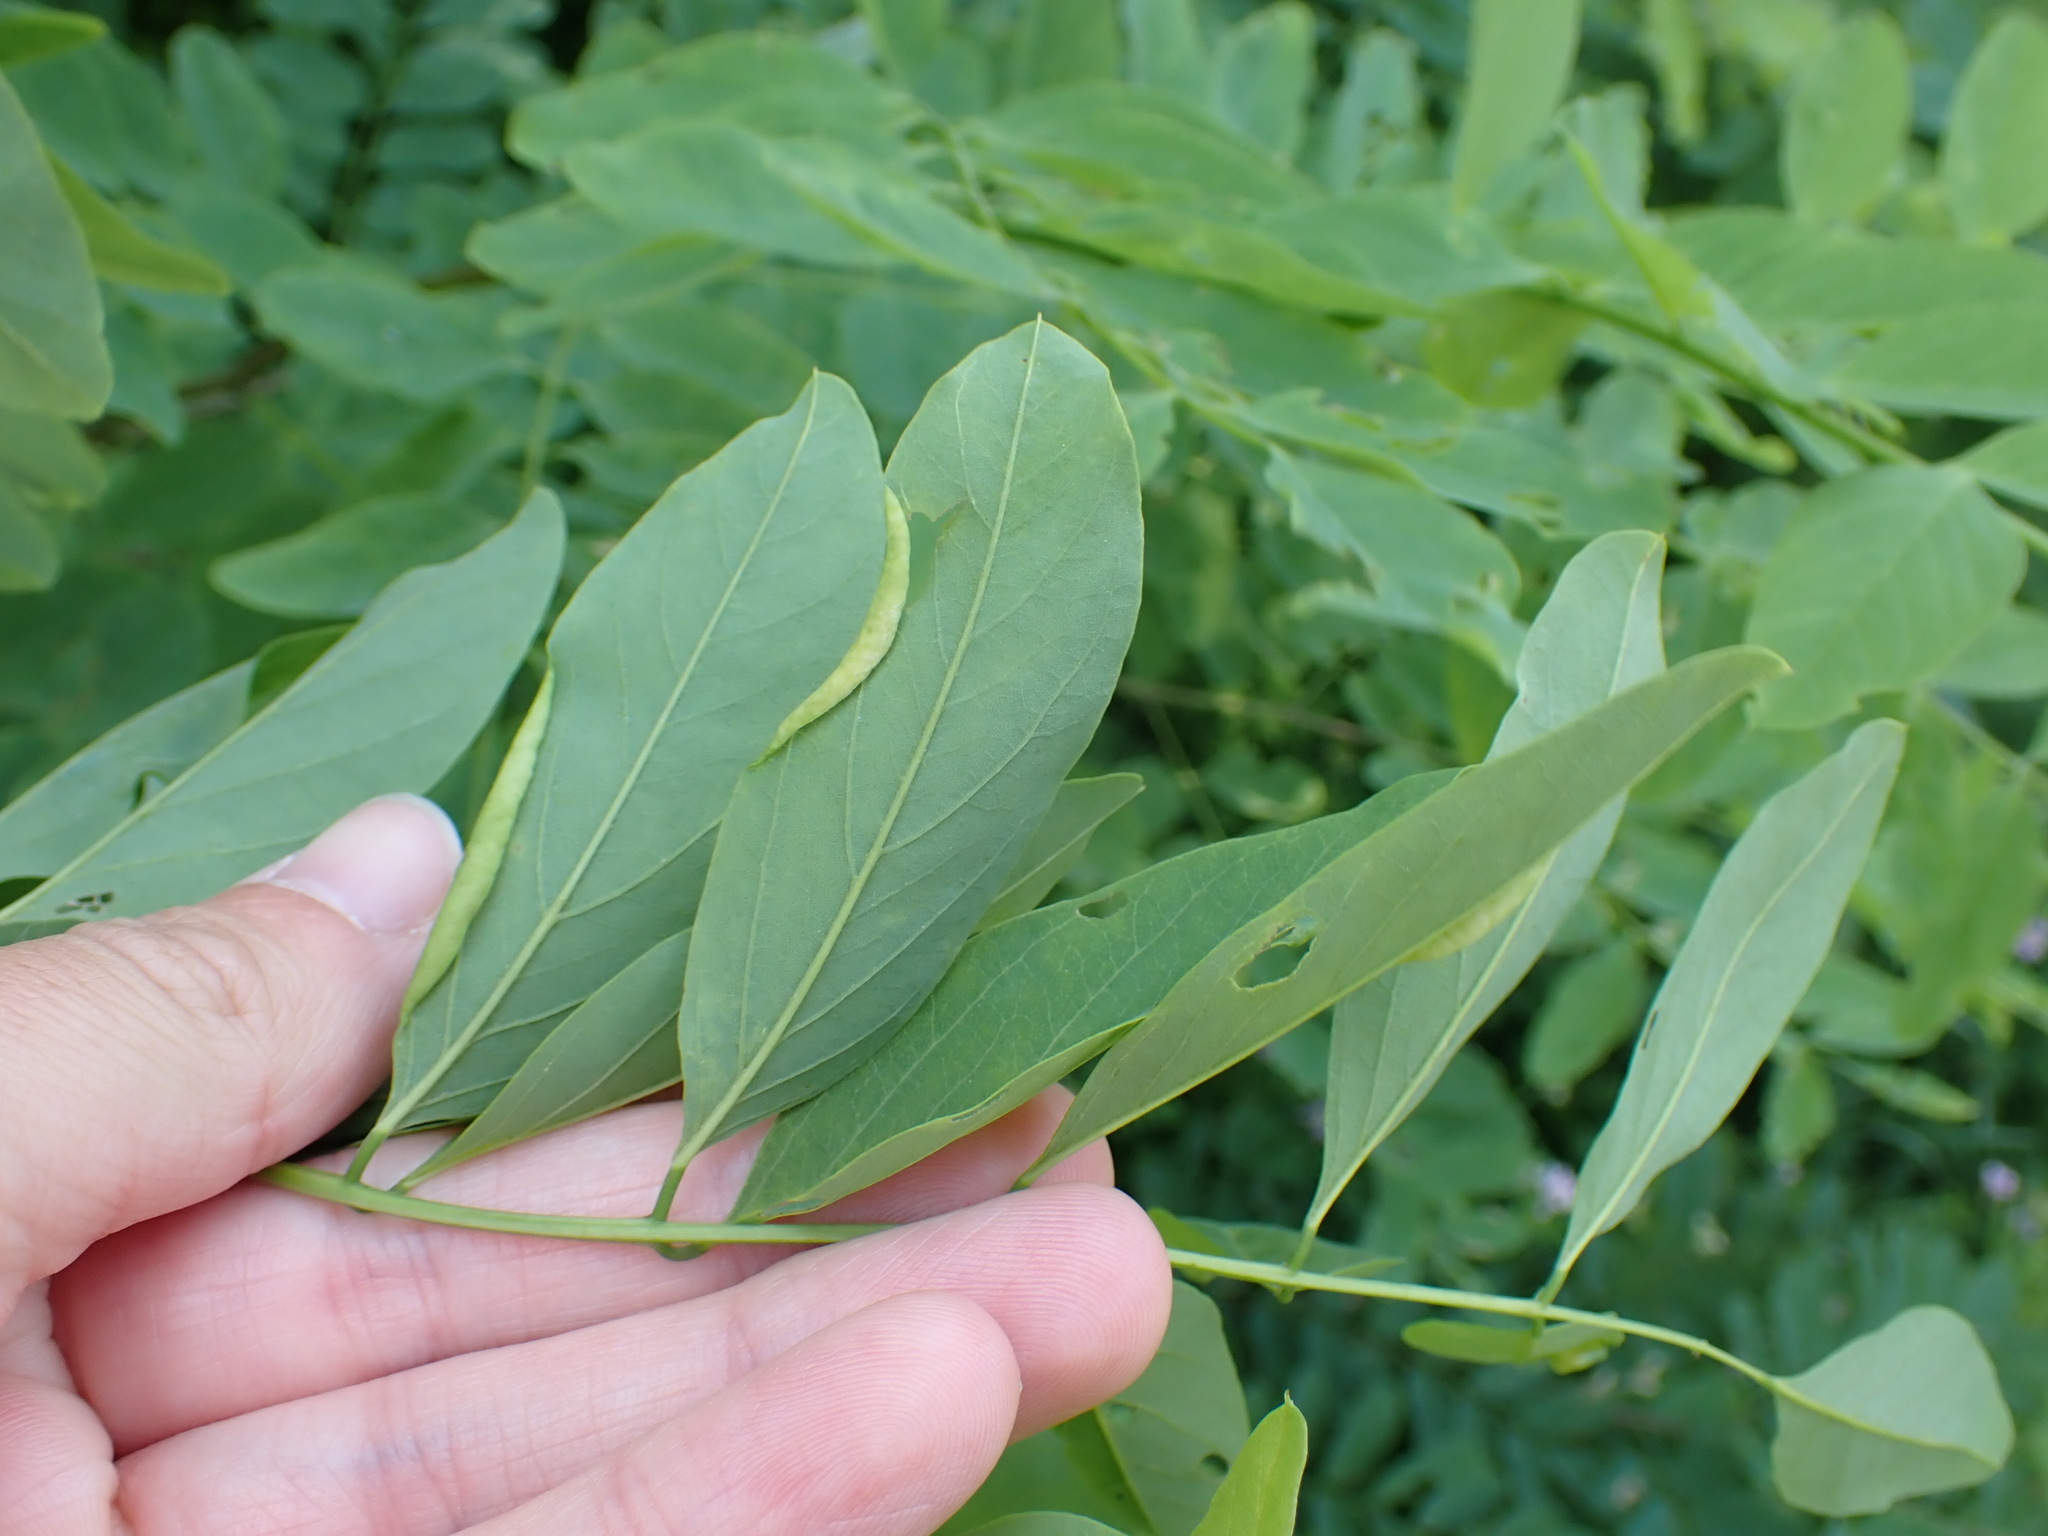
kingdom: Plantae
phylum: Tracheophyta
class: Magnoliopsida
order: Fabales
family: Fabaceae
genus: Robinia
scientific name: Robinia pseudoacacia
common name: Black locust
